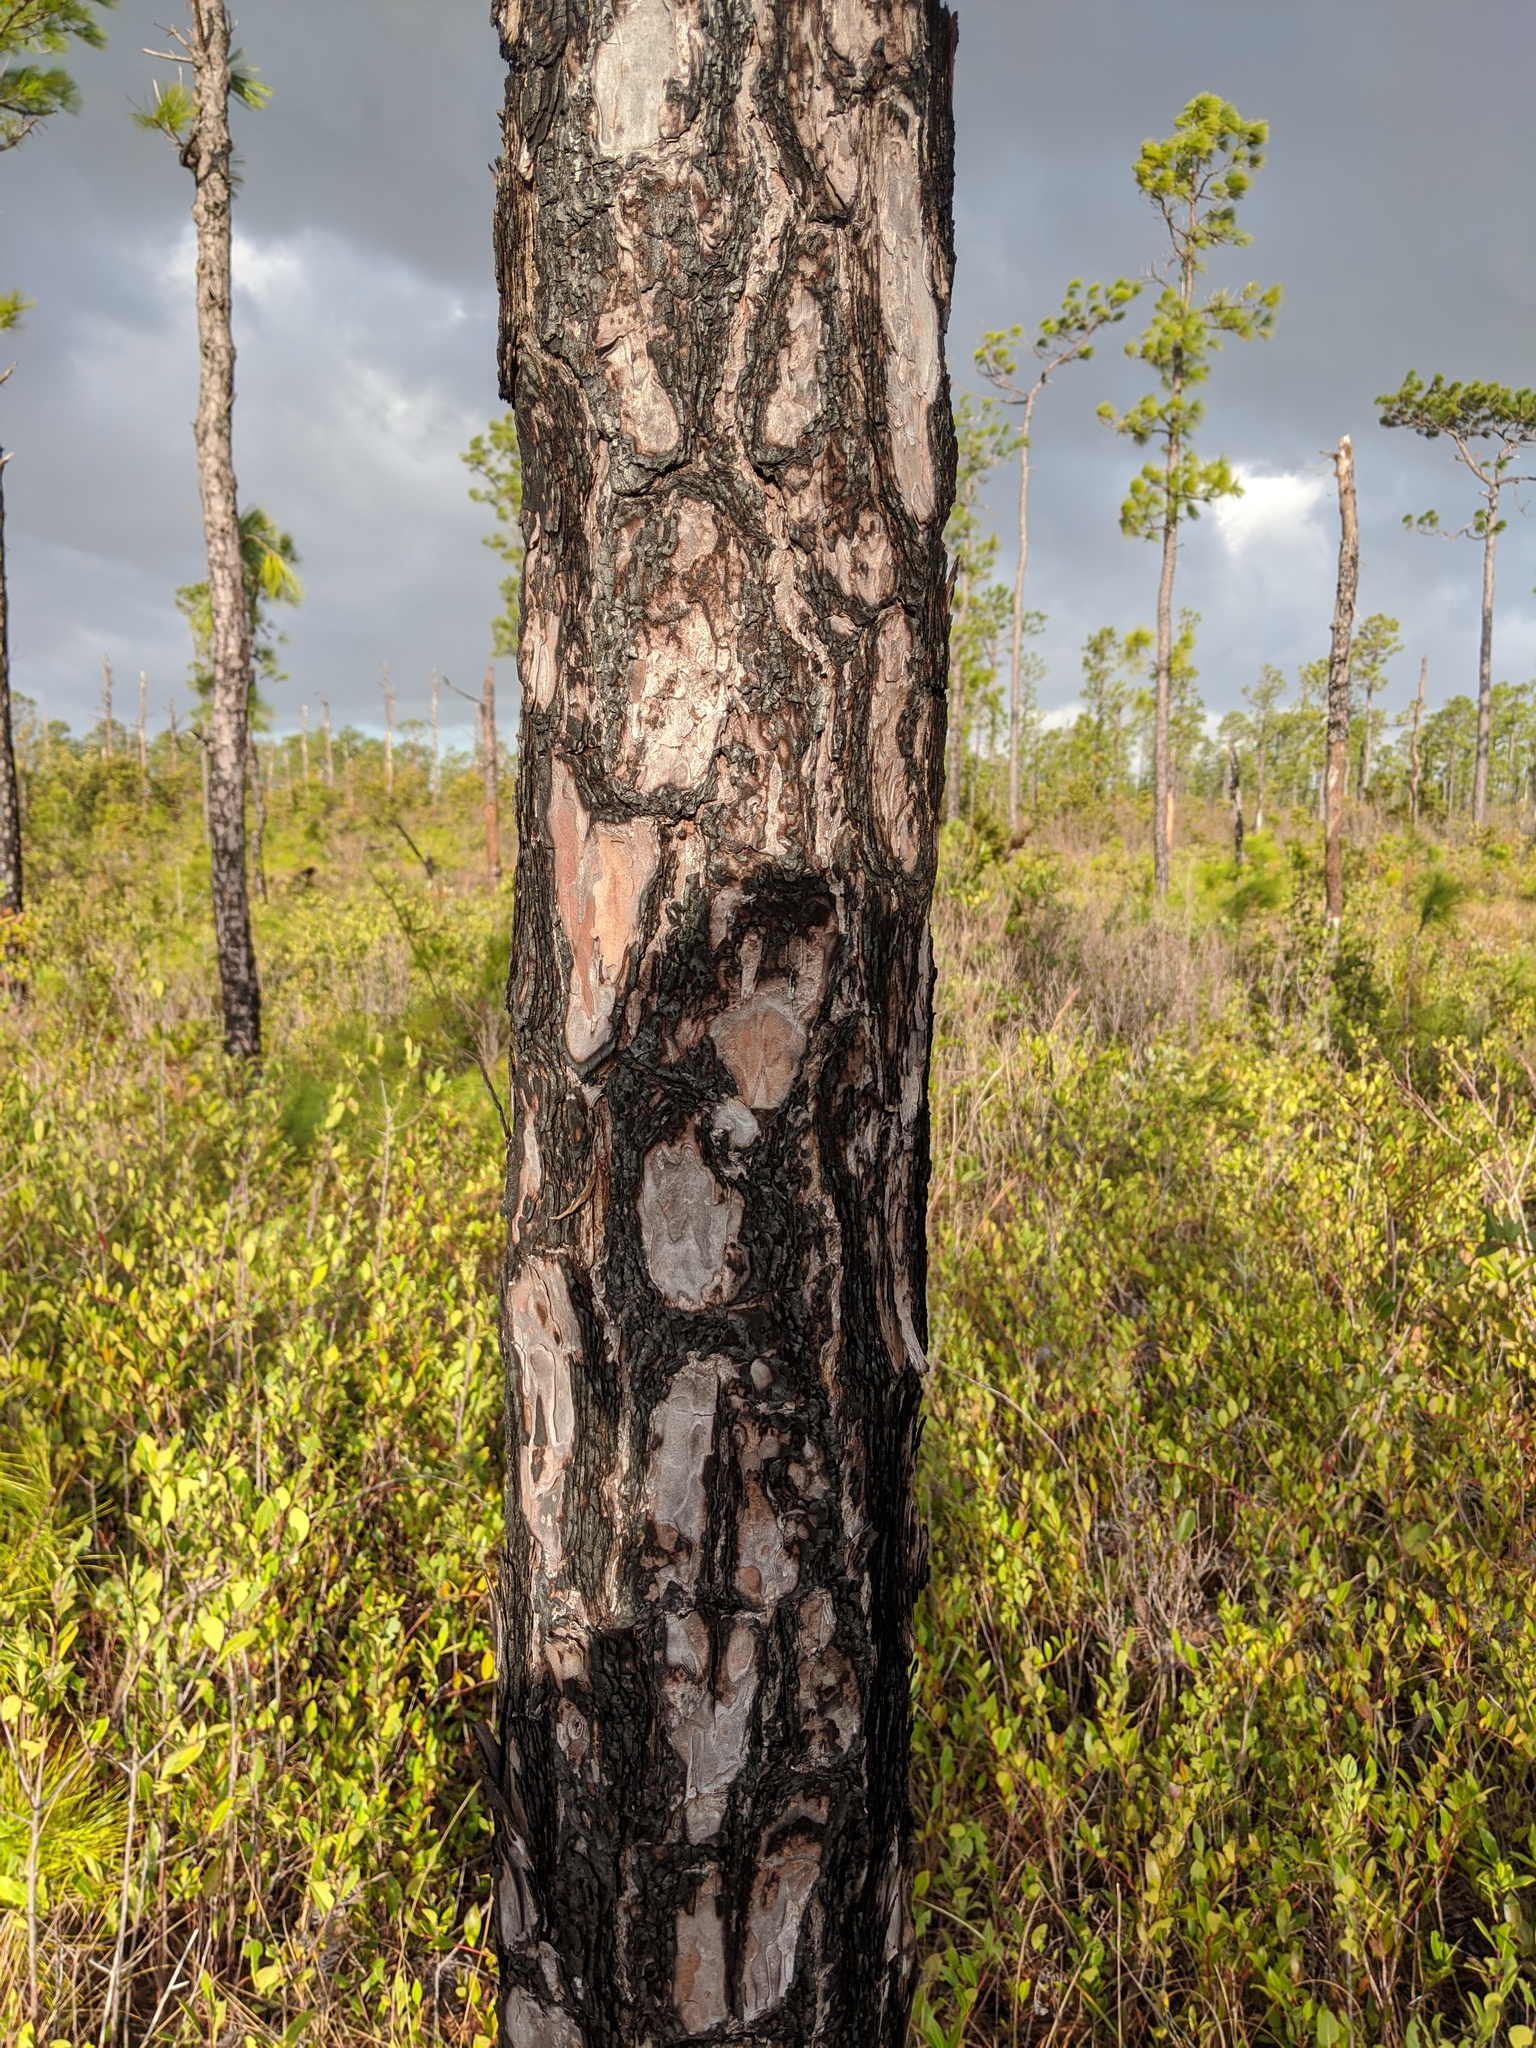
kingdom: Plantae
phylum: Tracheophyta
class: Pinopsida
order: Pinales
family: Pinaceae
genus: Pinus
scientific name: Pinus serotina
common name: Marsh pine
